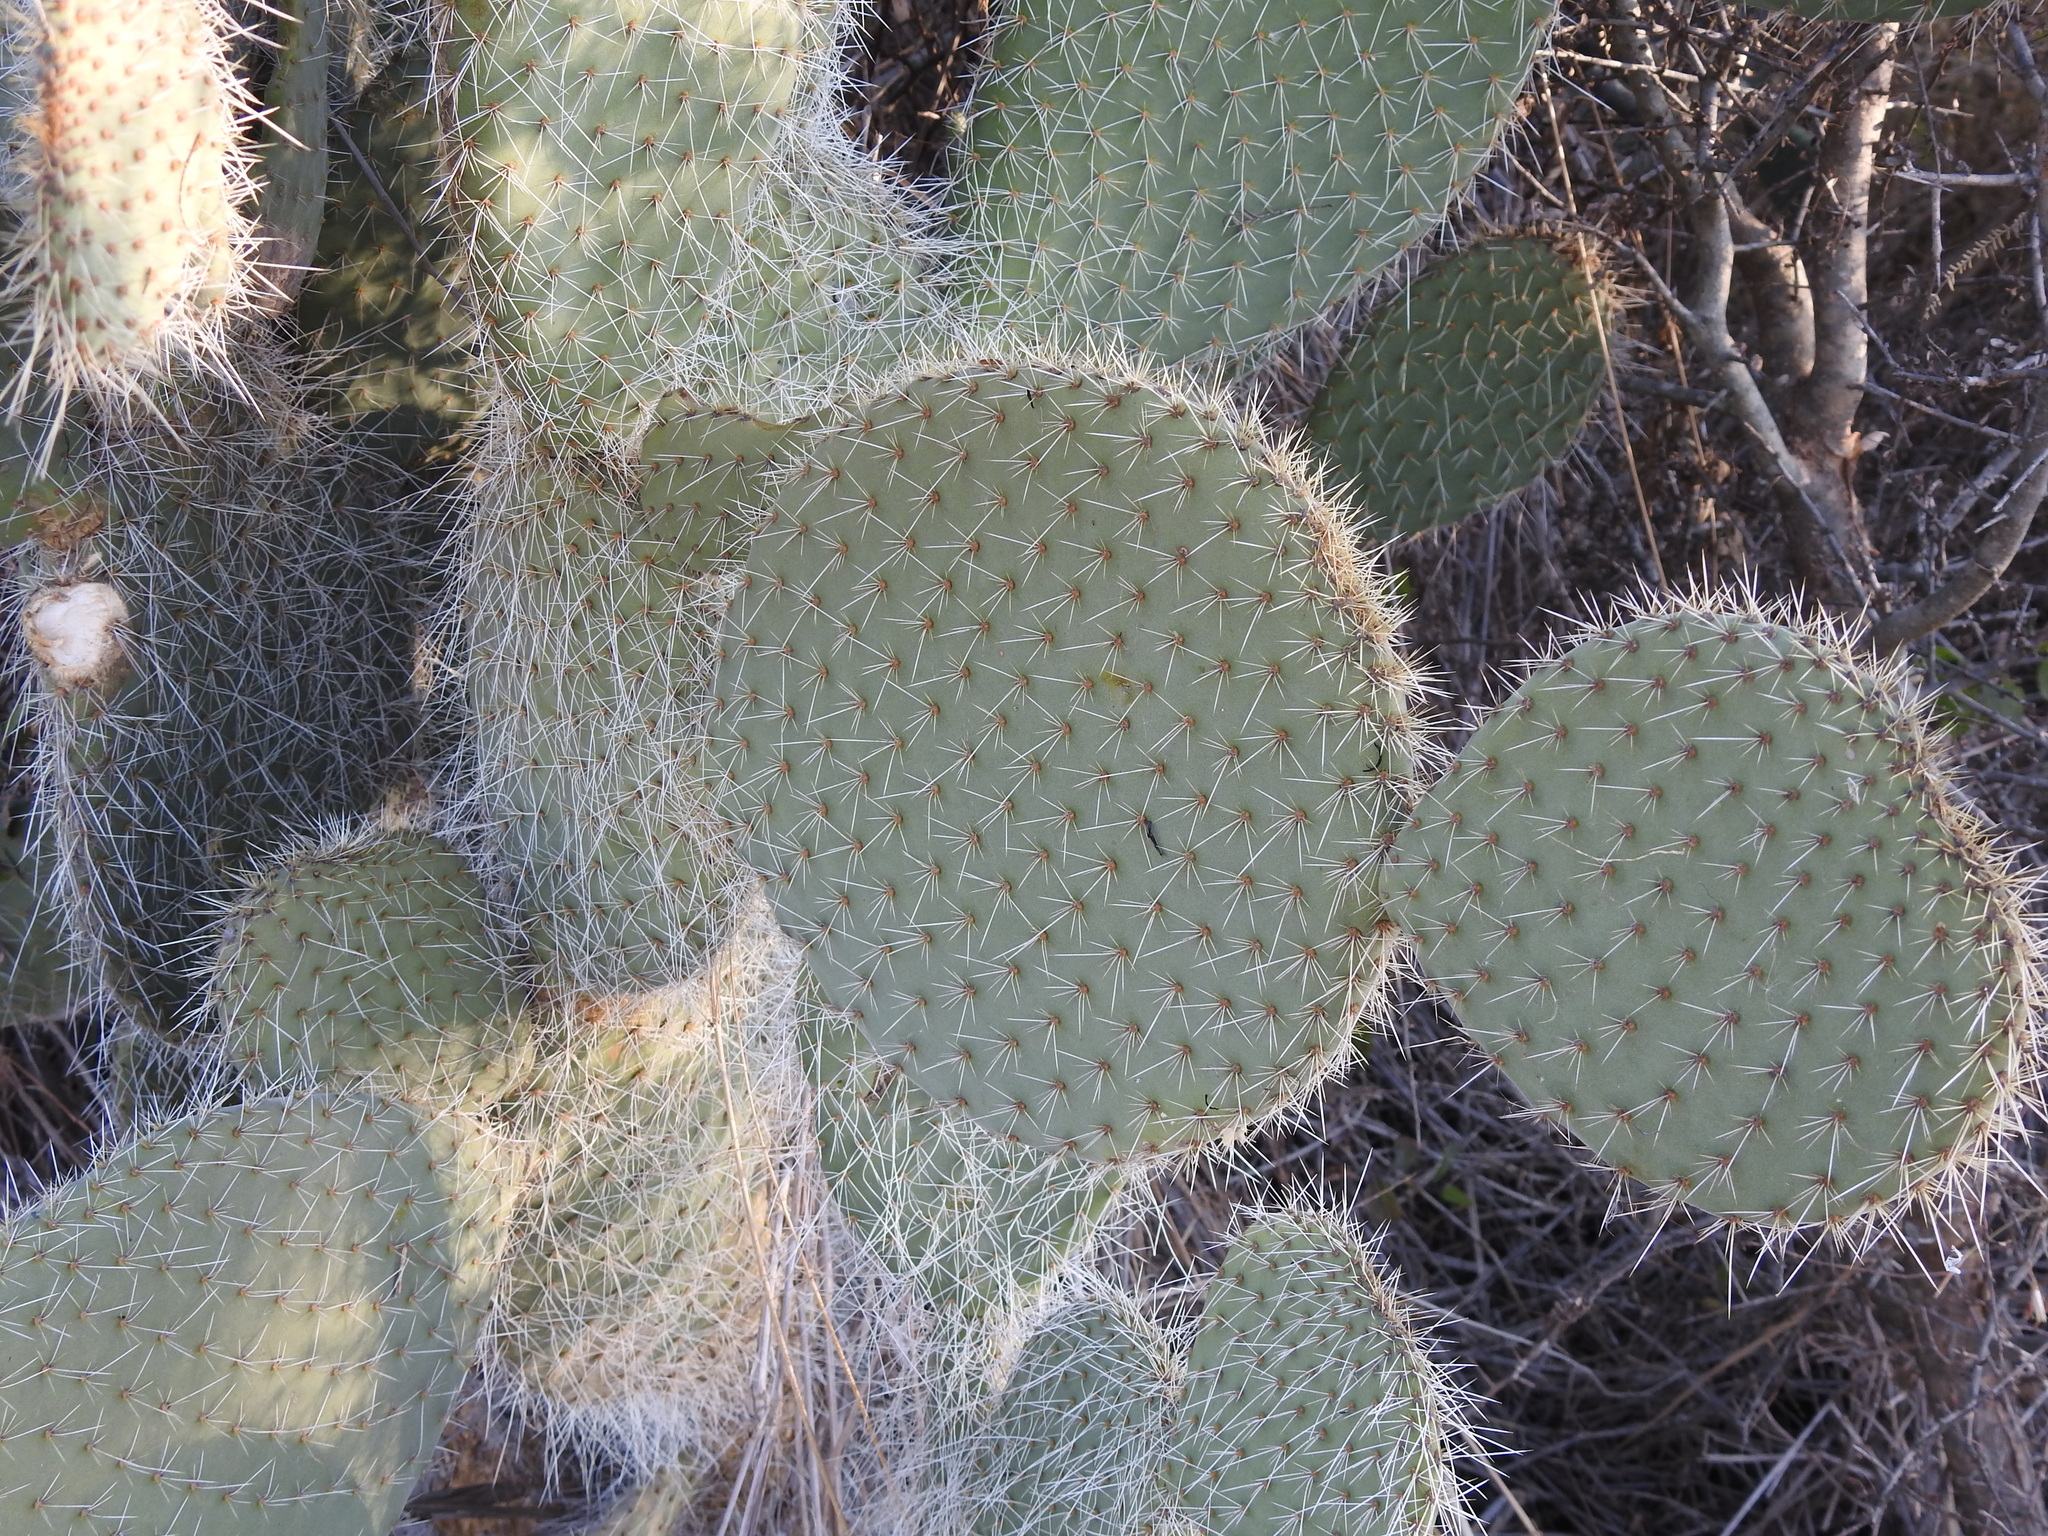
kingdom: Plantae
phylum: Tracheophyta
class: Magnoliopsida
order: Caryophyllales
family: Cactaceae
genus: Opuntia
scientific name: Opuntia leucotricha
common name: Arborescent pricklypear
